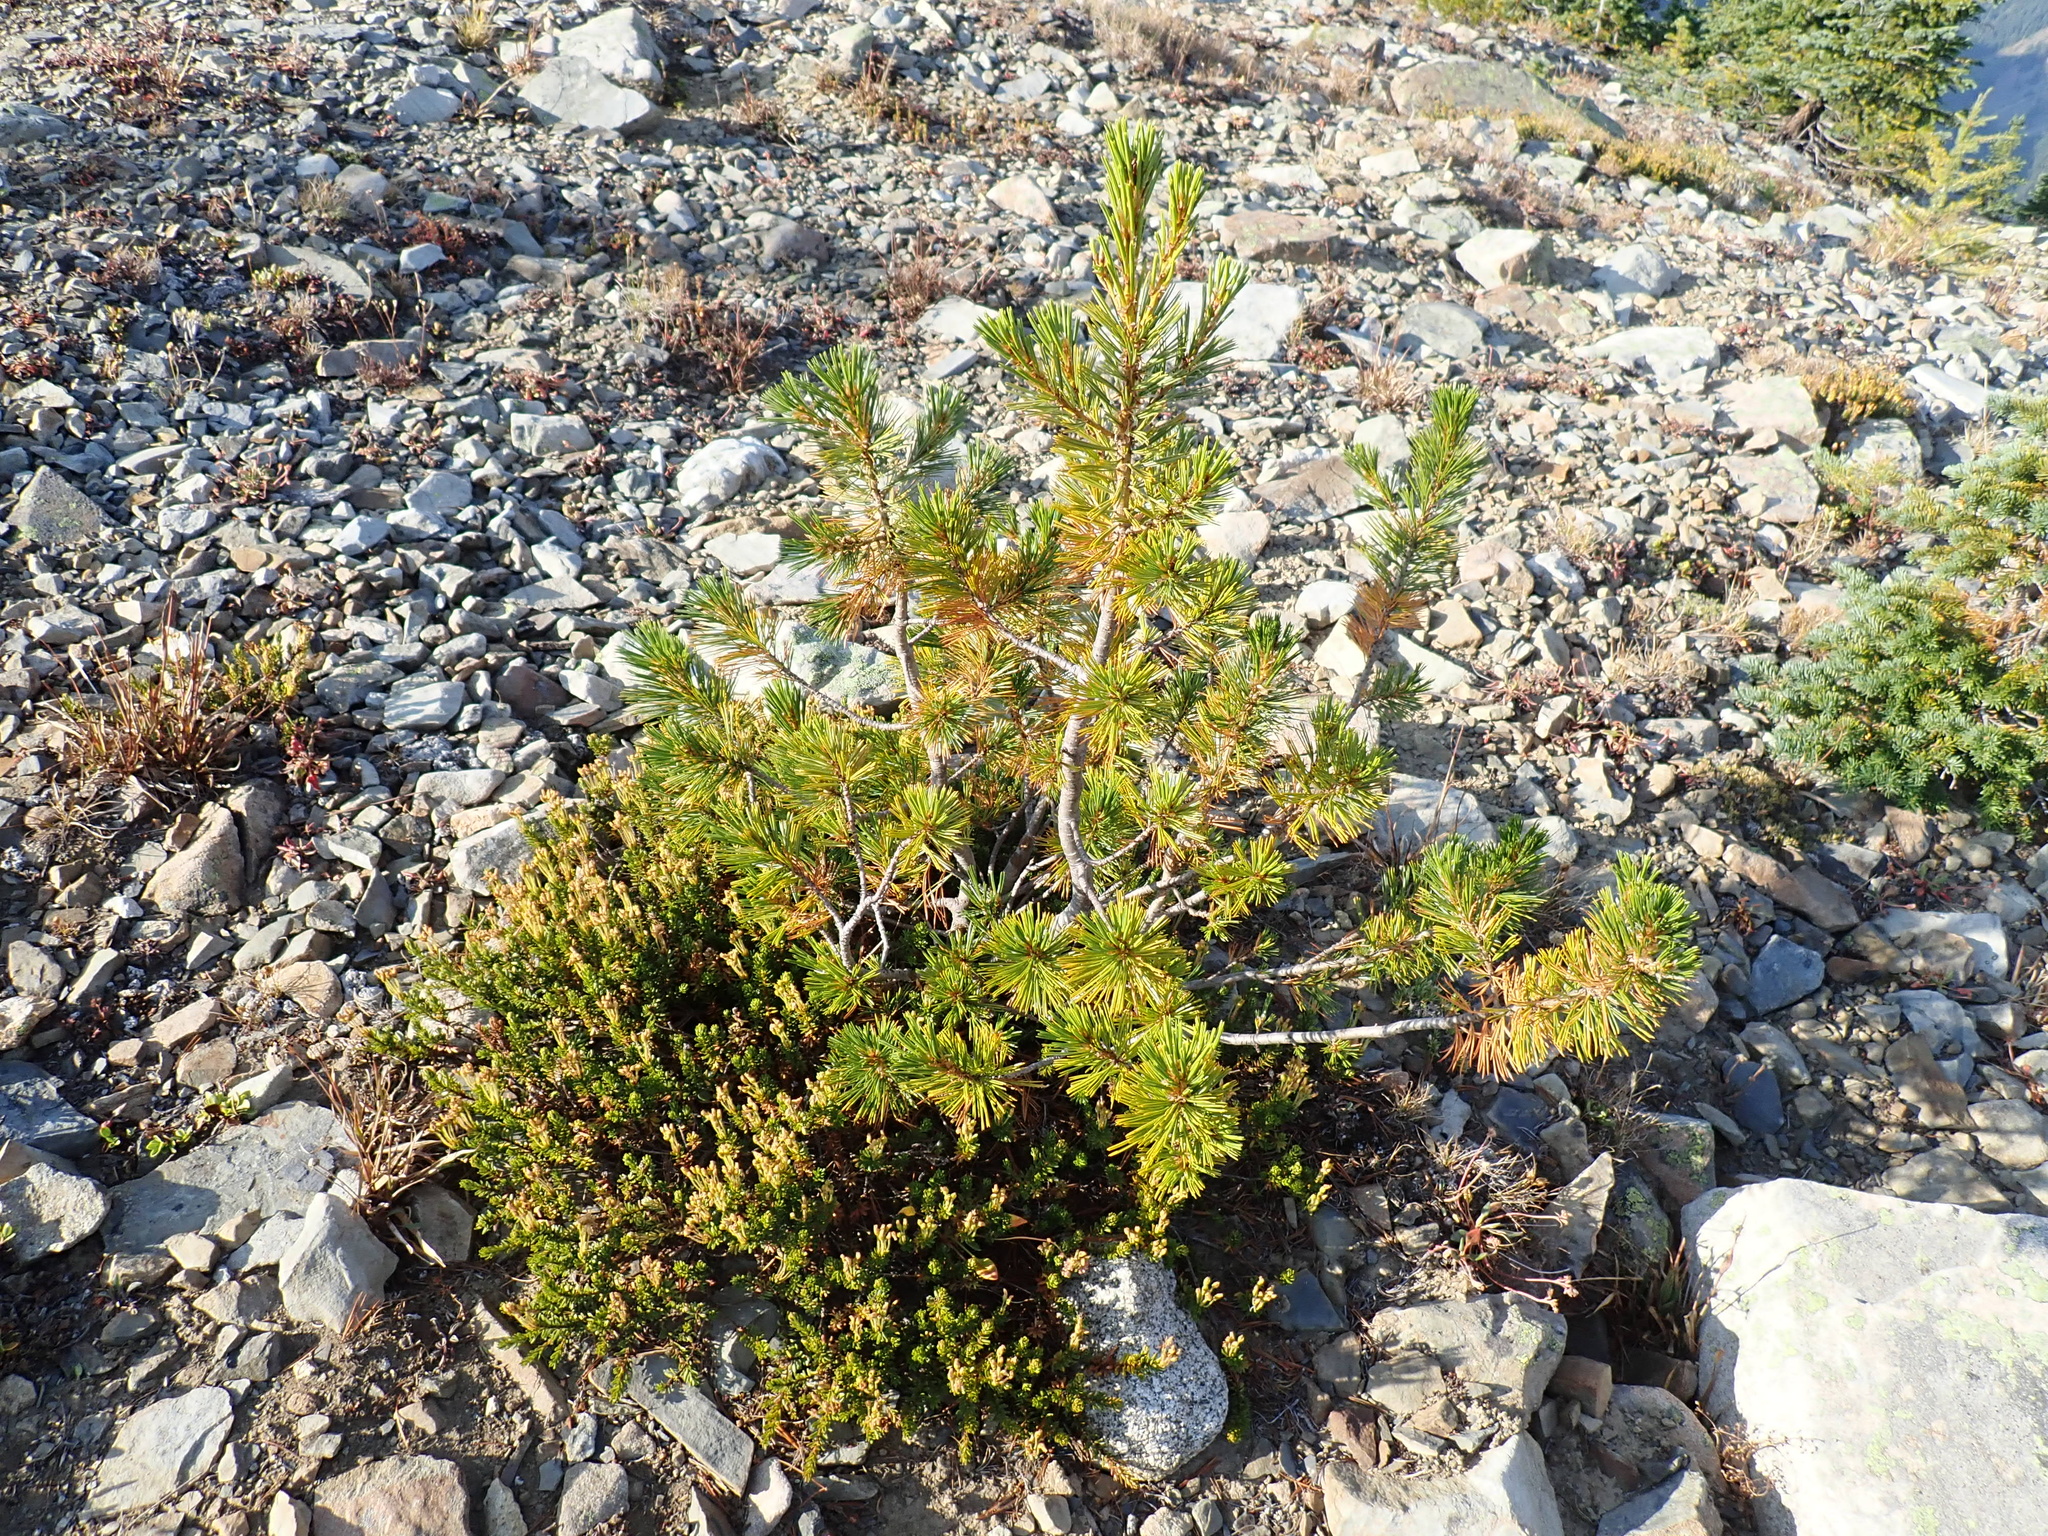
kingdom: Plantae
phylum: Tracheophyta
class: Pinopsida
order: Pinales
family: Pinaceae
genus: Pinus
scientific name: Pinus albicaulis
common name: Whitebark pine
